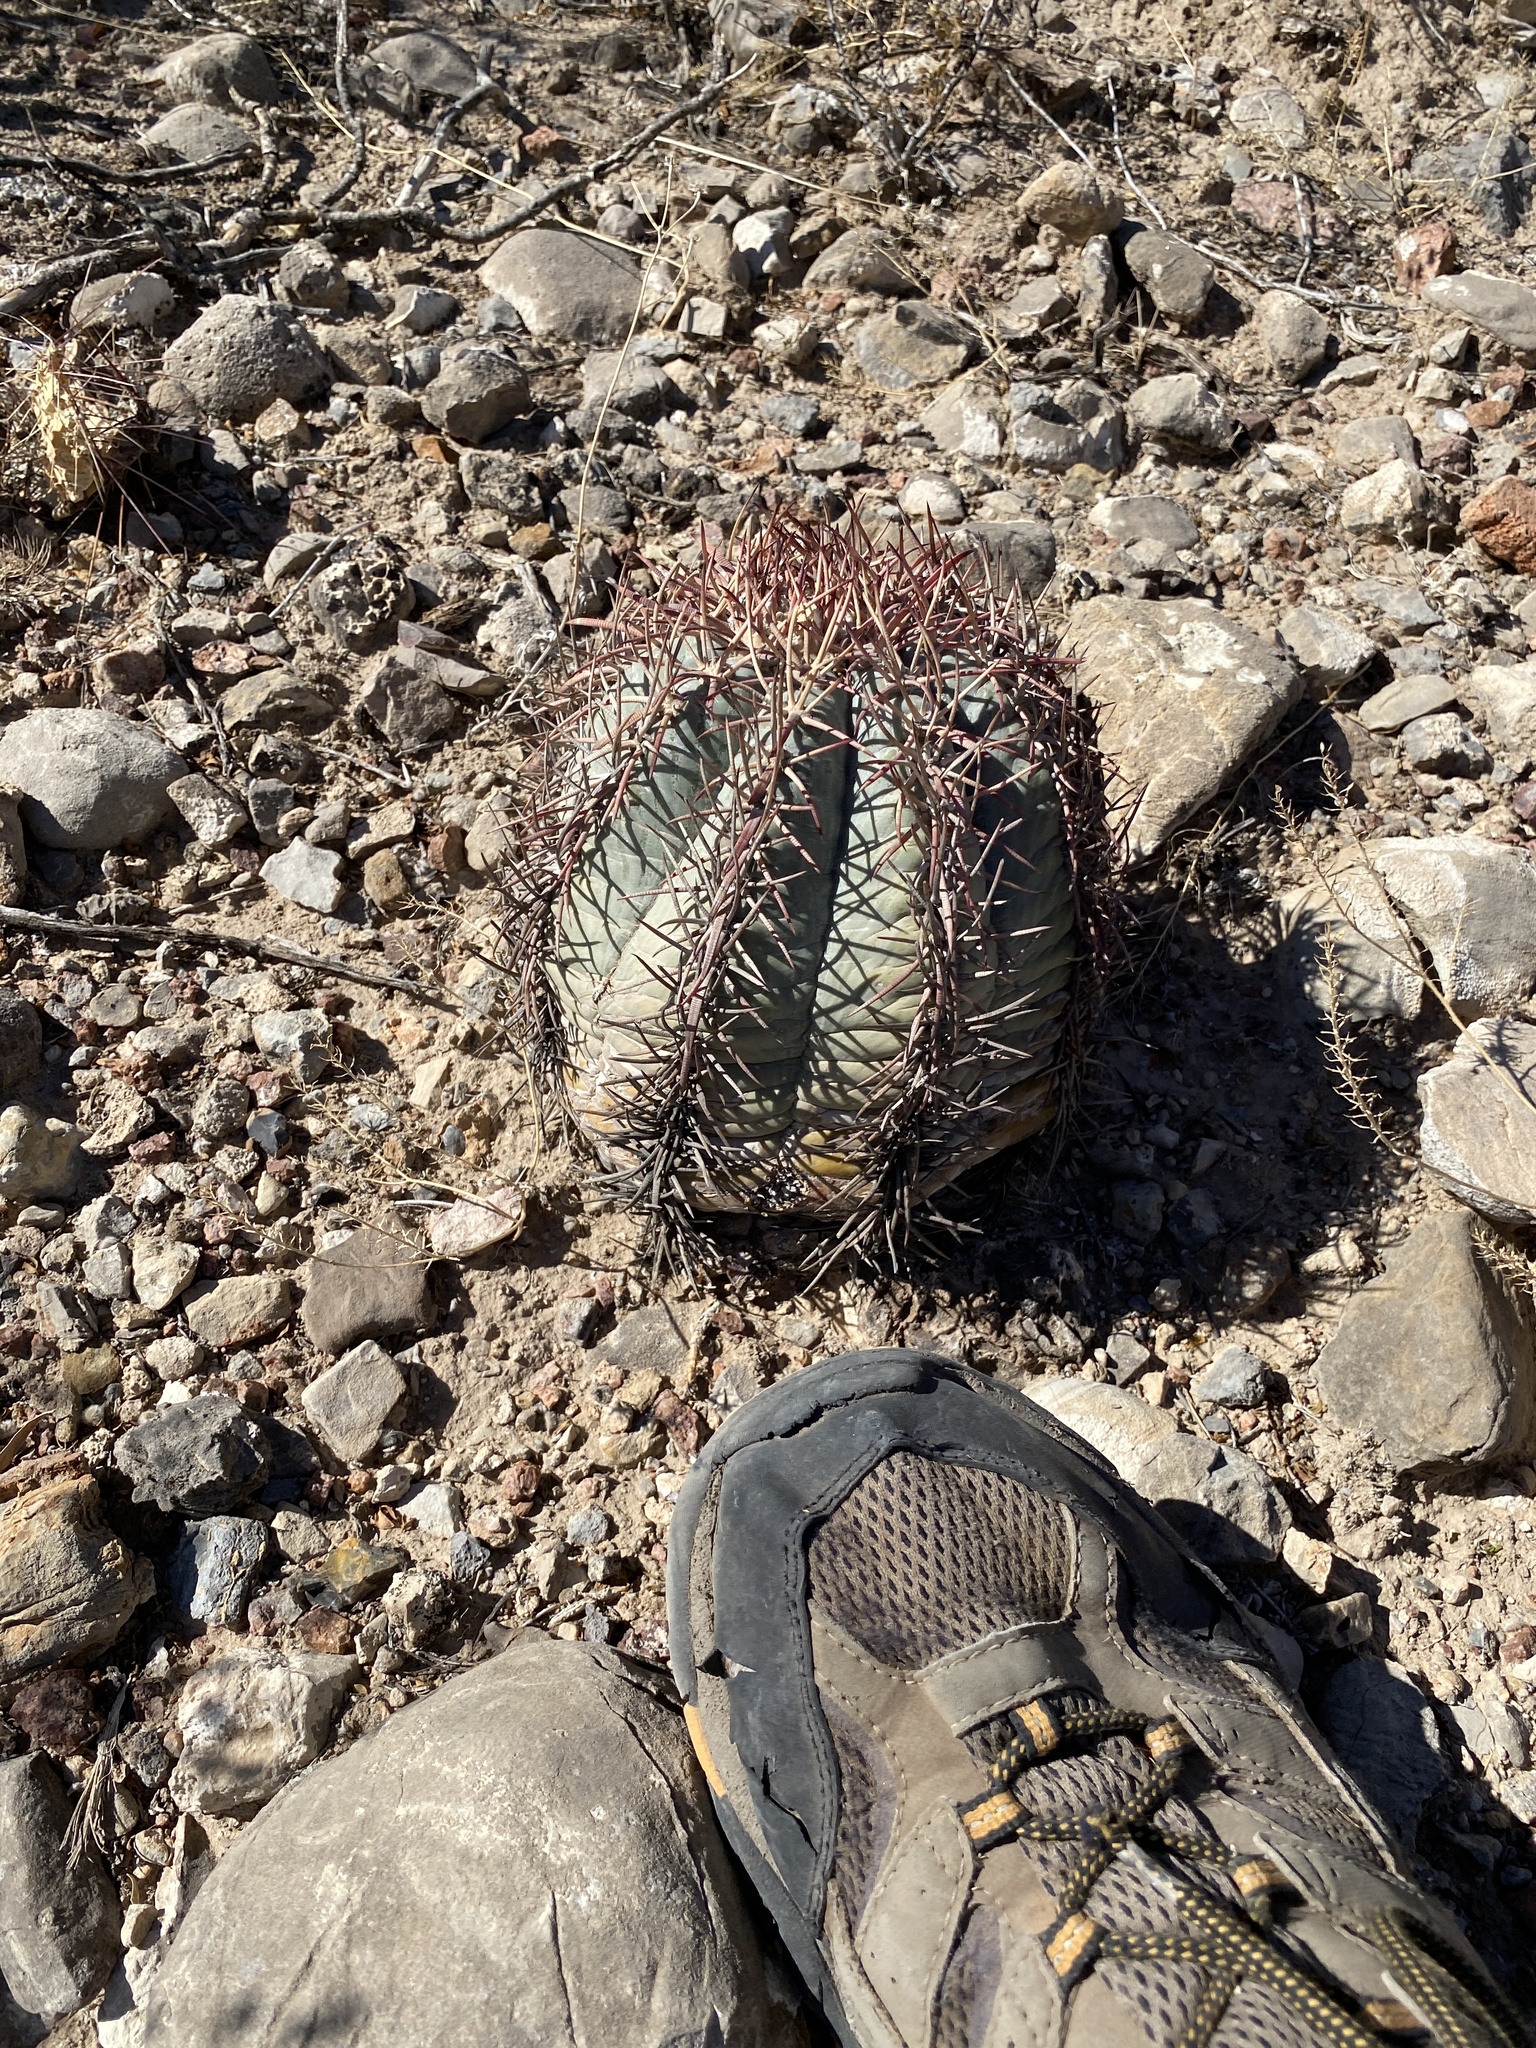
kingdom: Plantae
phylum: Tracheophyta
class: Magnoliopsida
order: Caryophyllales
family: Cactaceae
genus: Echinocactus
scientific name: Echinocactus horizonthalonius
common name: Devilshead
